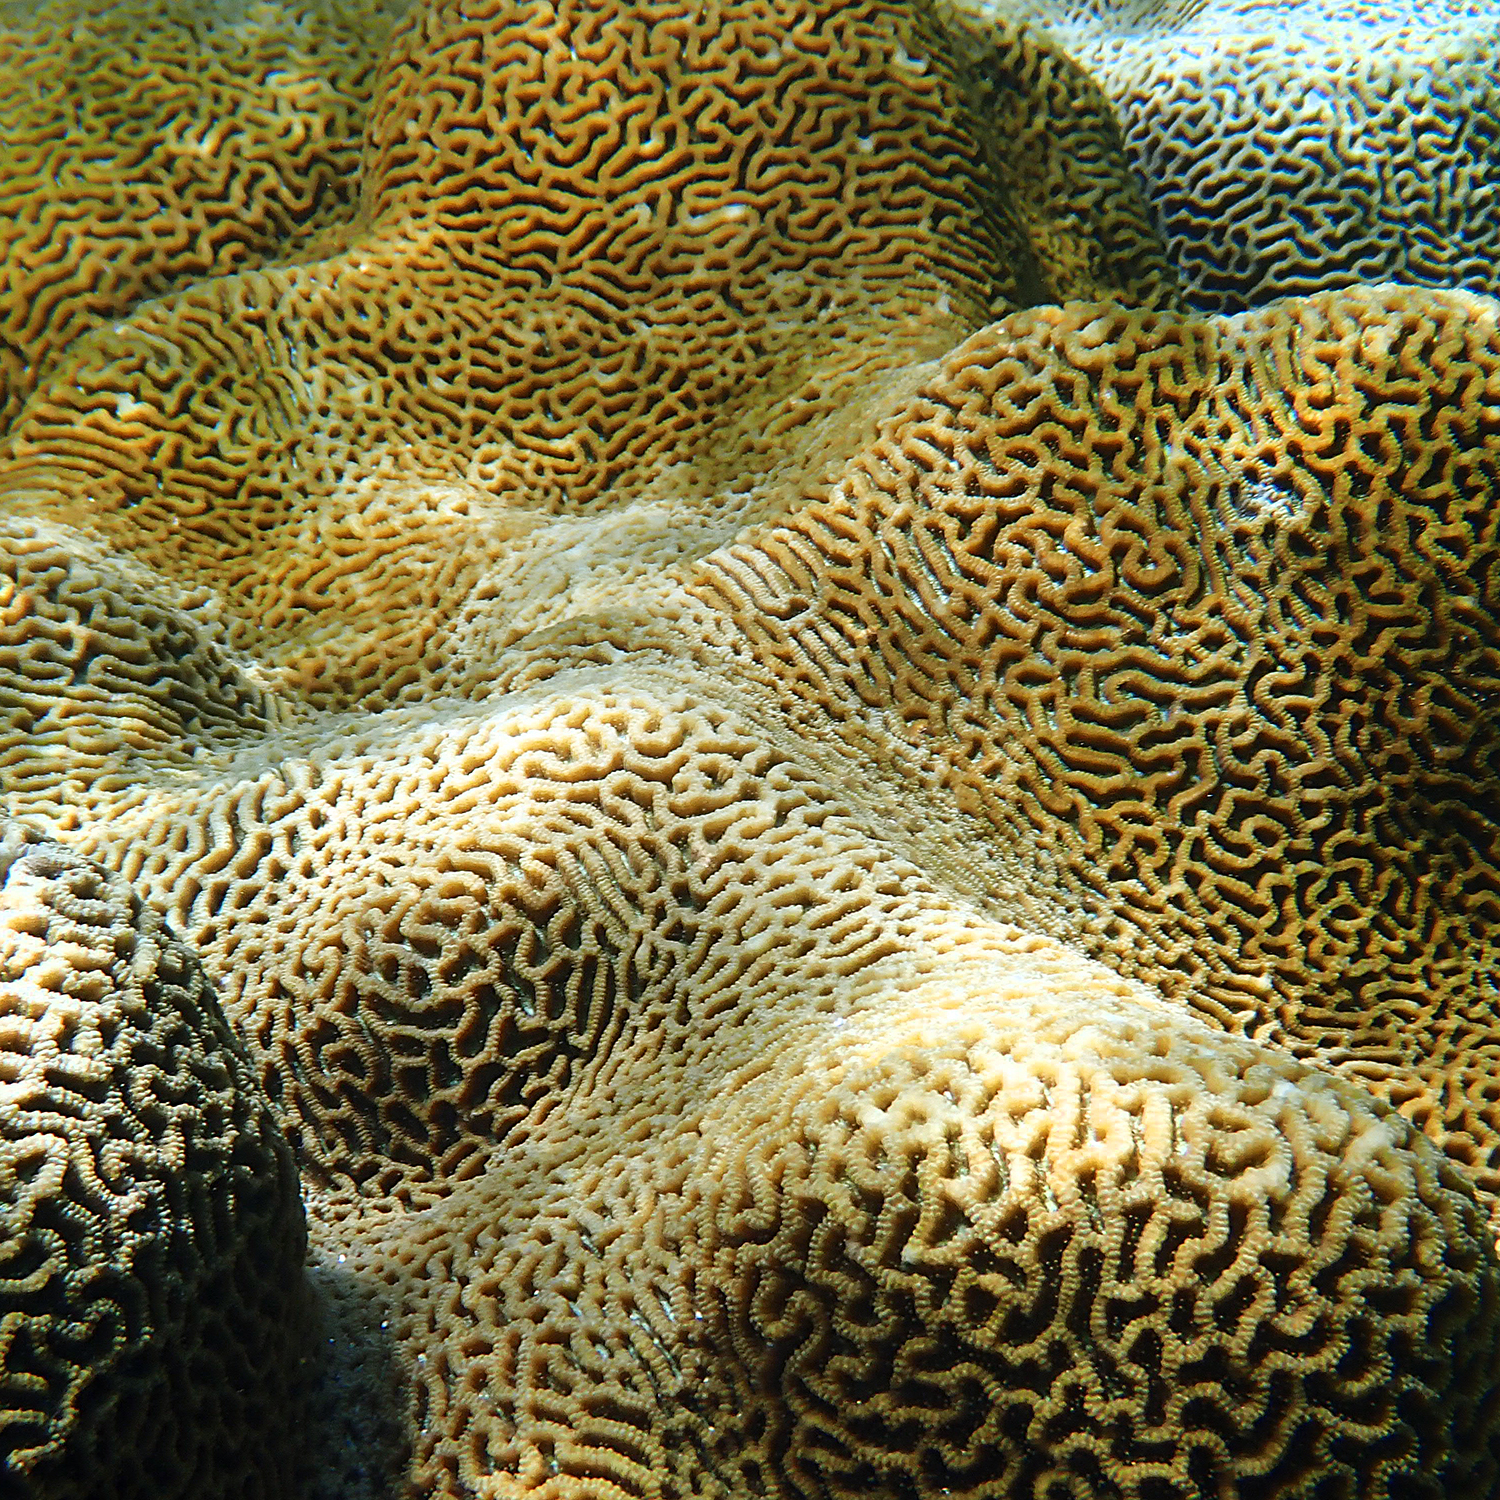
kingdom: Animalia
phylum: Cnidaria
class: Anthozoa
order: Scleractinia
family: Merulinidae
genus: Paragoniastrea
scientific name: Paragoniastrea australensis
